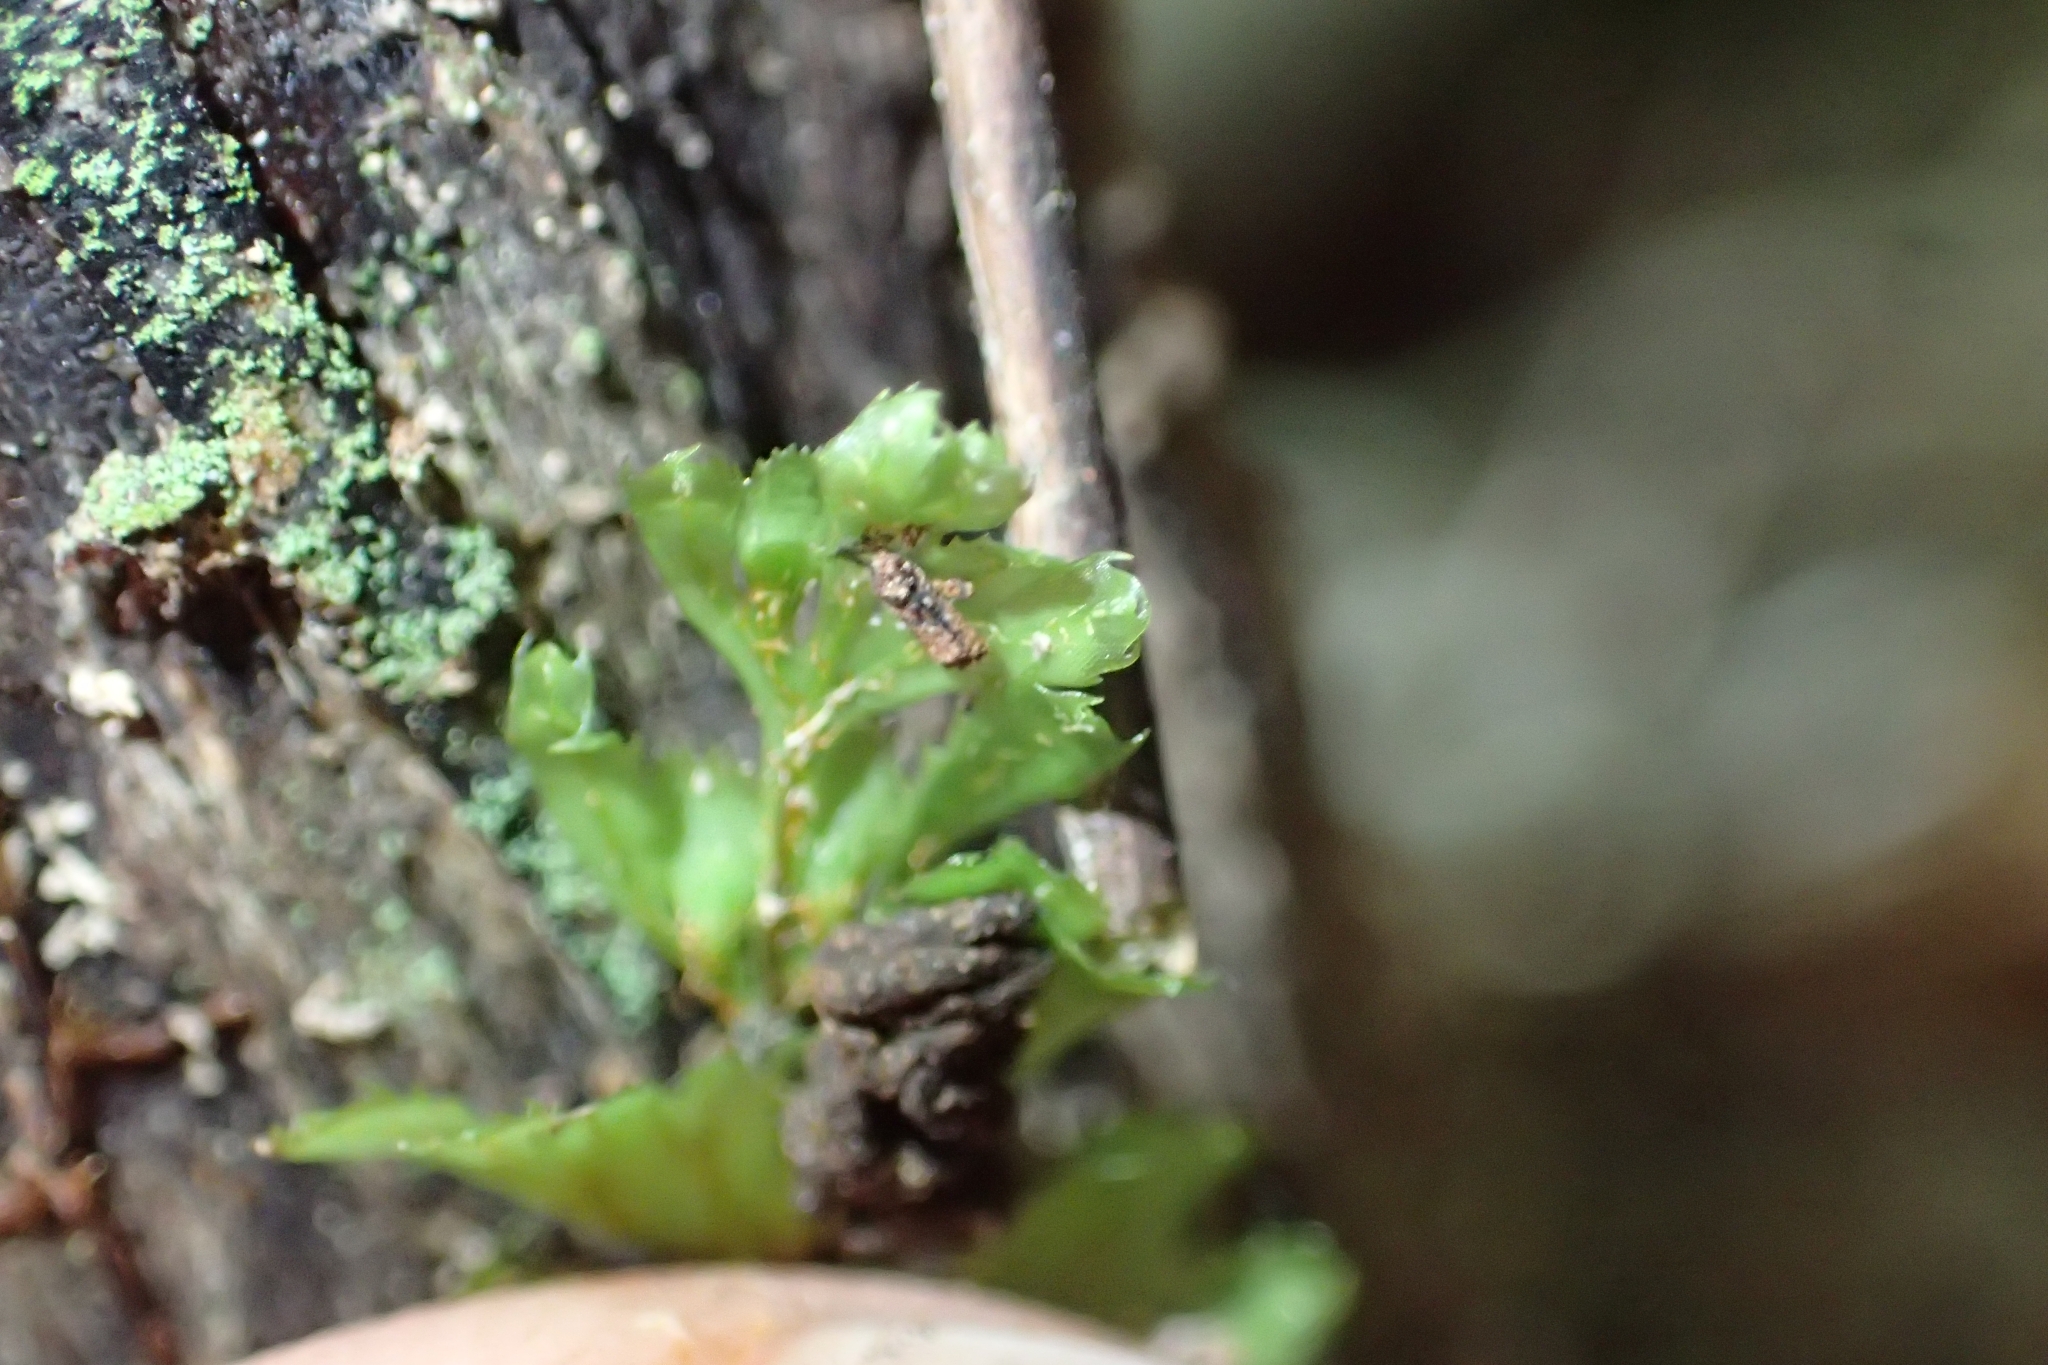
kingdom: Plantae
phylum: Tracheophyta
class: Polypodiopsida
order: Hymenophyllales
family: Hymenophyllaceae
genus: Hymenophyllum
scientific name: Hymenophyllum revolutum
